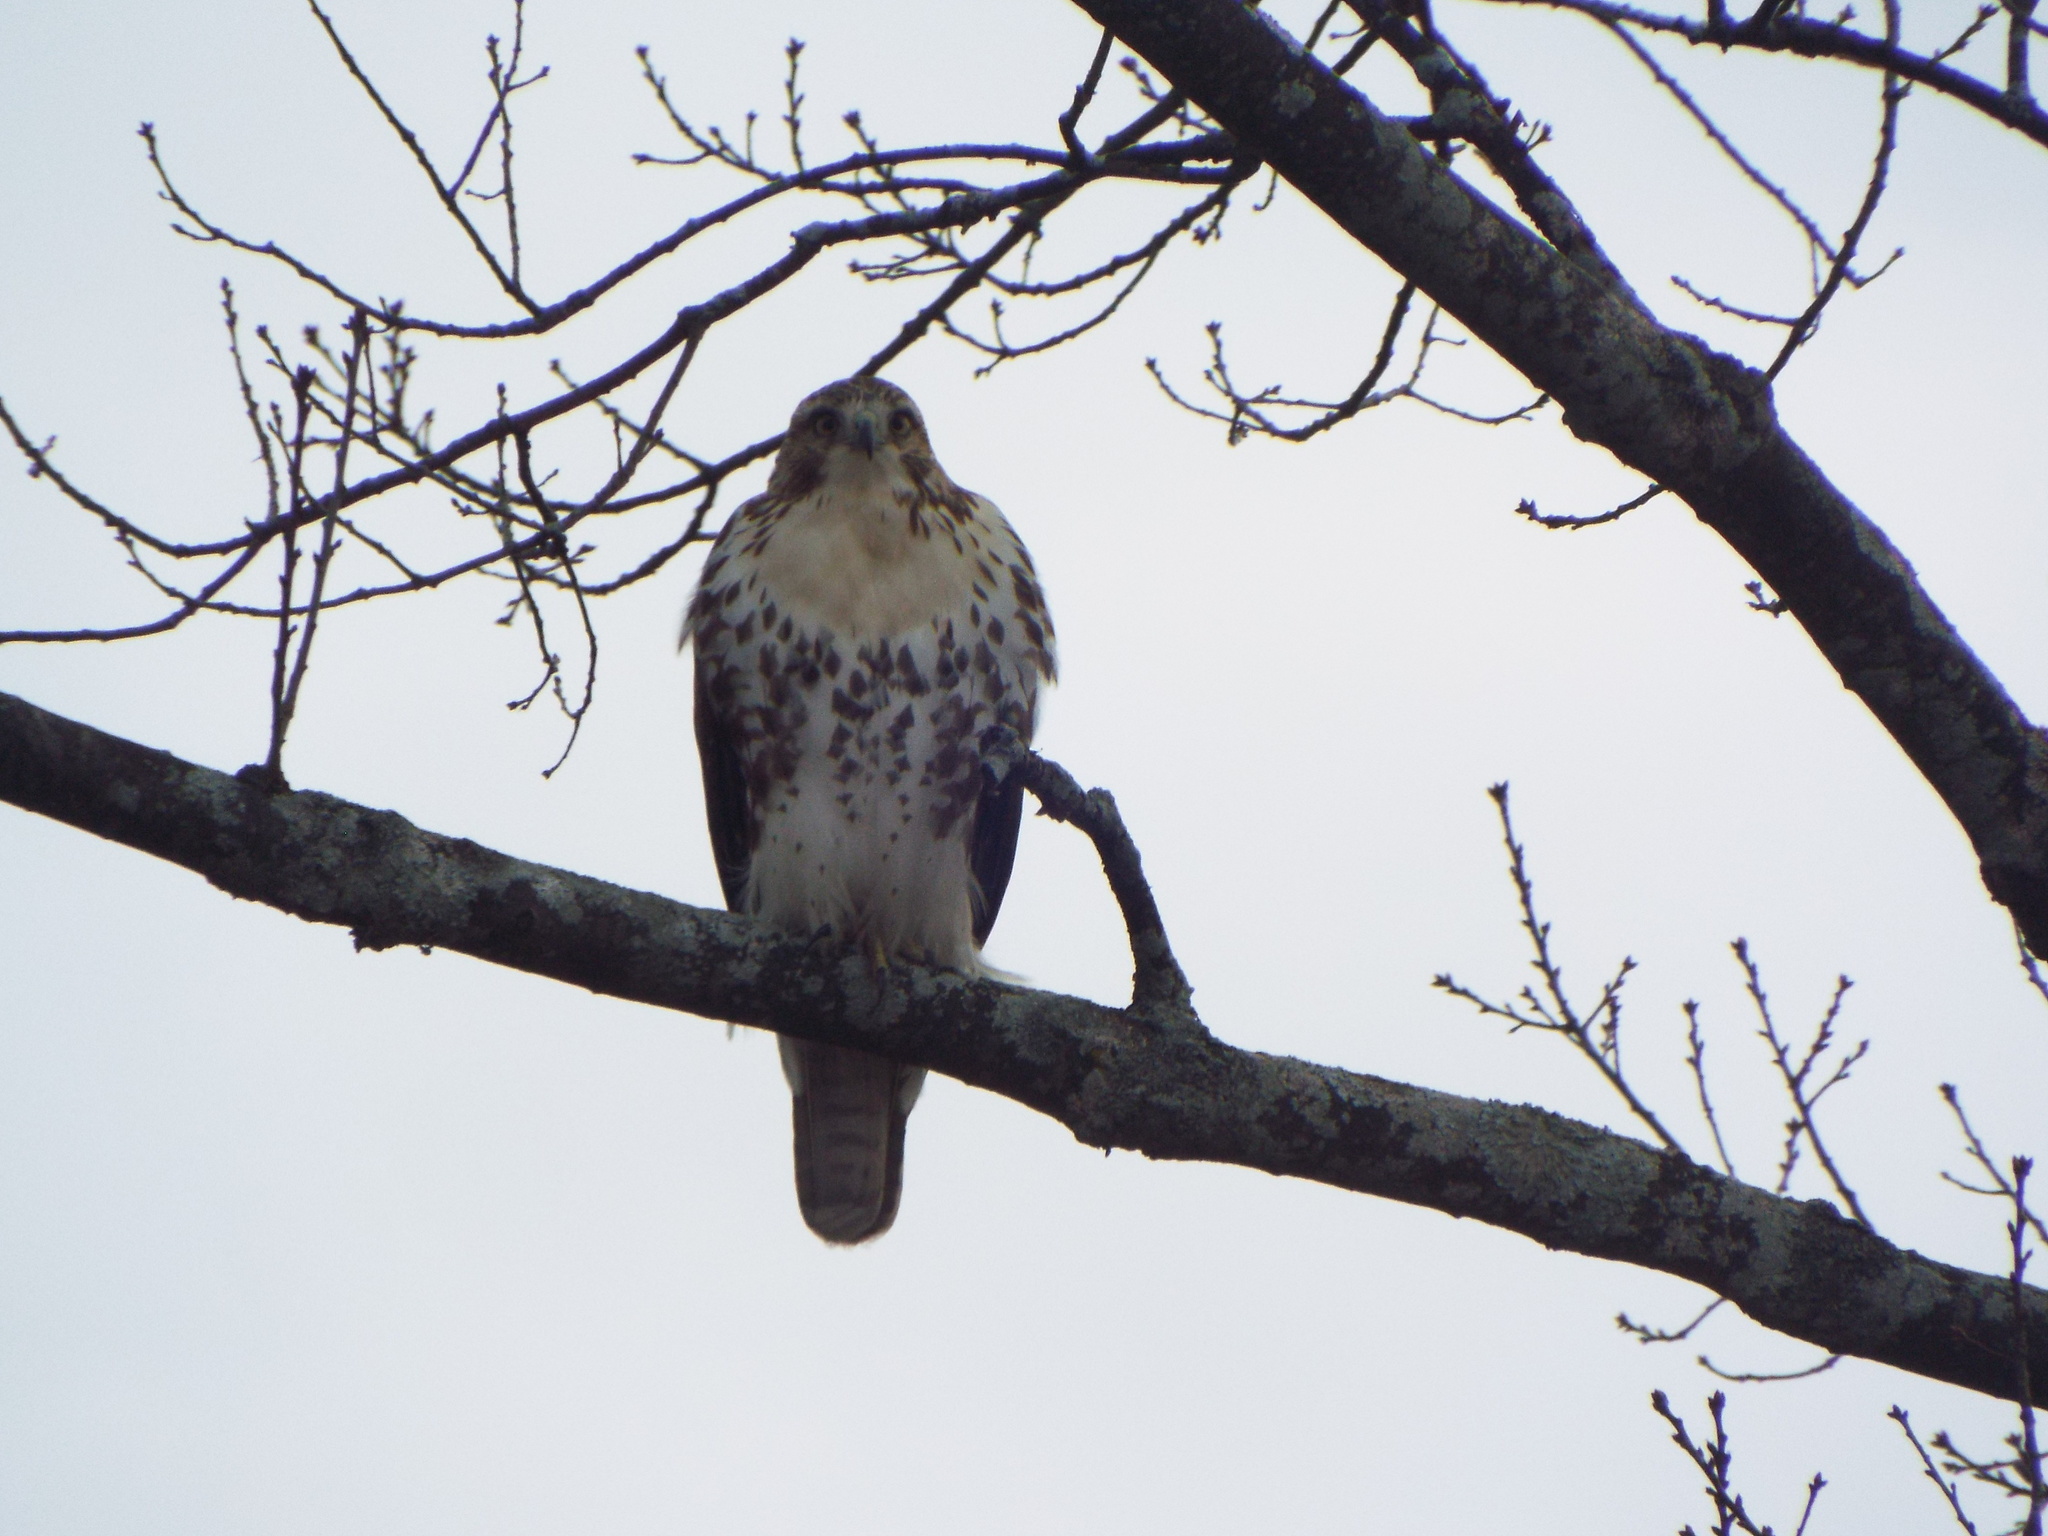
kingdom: Animalia
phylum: Chordata
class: Aves
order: Accipitriformes
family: Accipitridae
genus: Buteo
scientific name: Buteo jamaicensis
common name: Red-tailed hawk
